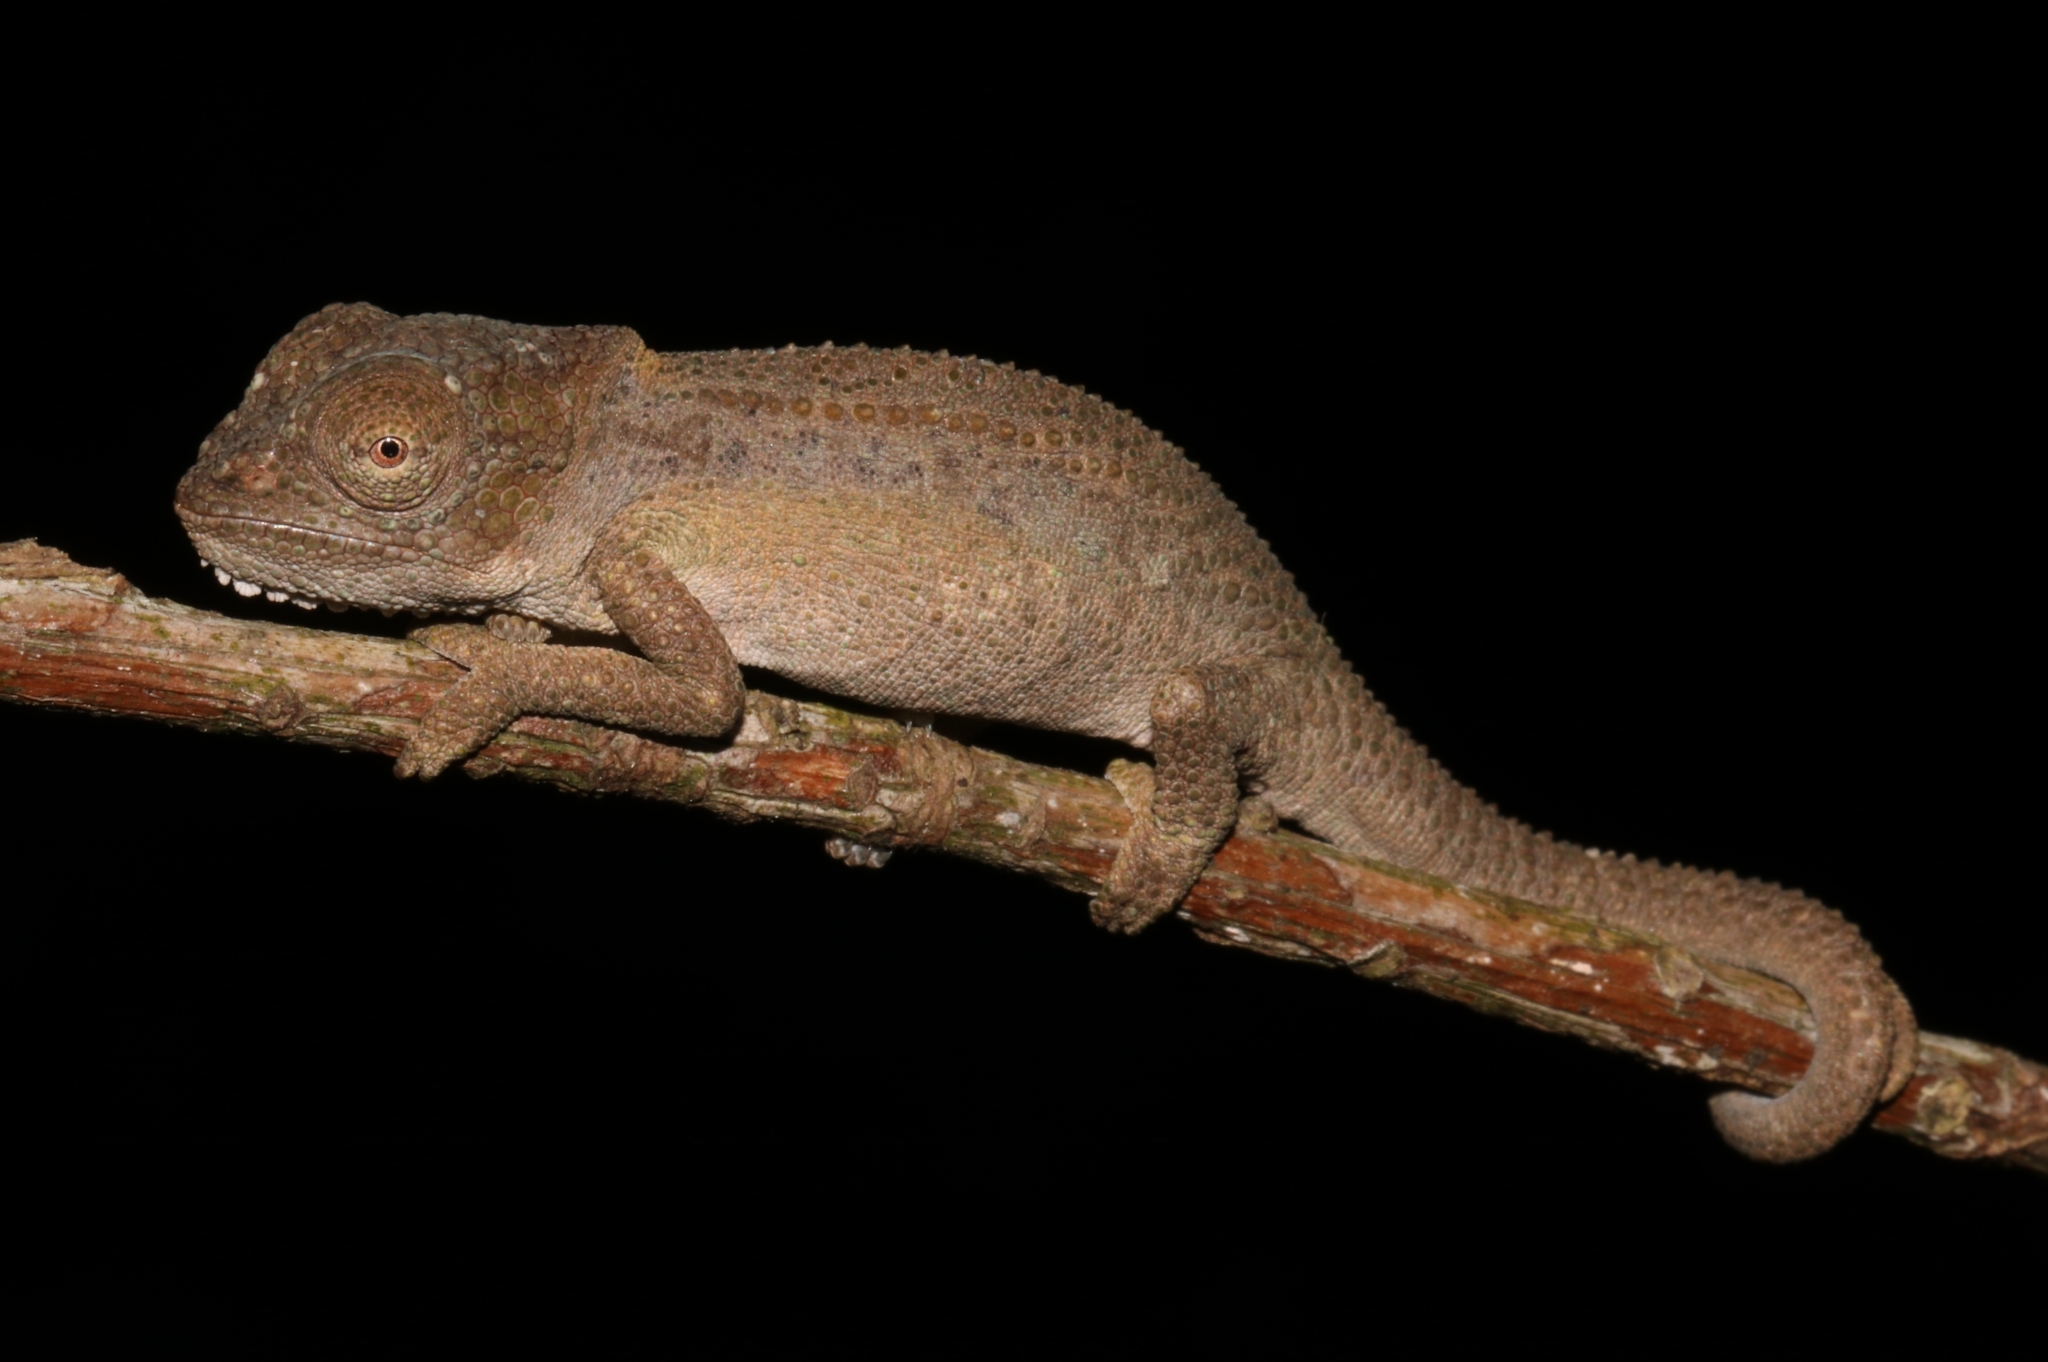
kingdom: Animalia
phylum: Chordata
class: Squamata
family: Chamaeleonidae
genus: Bradypodion
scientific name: Bradypodion venustum
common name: Grootvadersbosch dwarf chameleon
